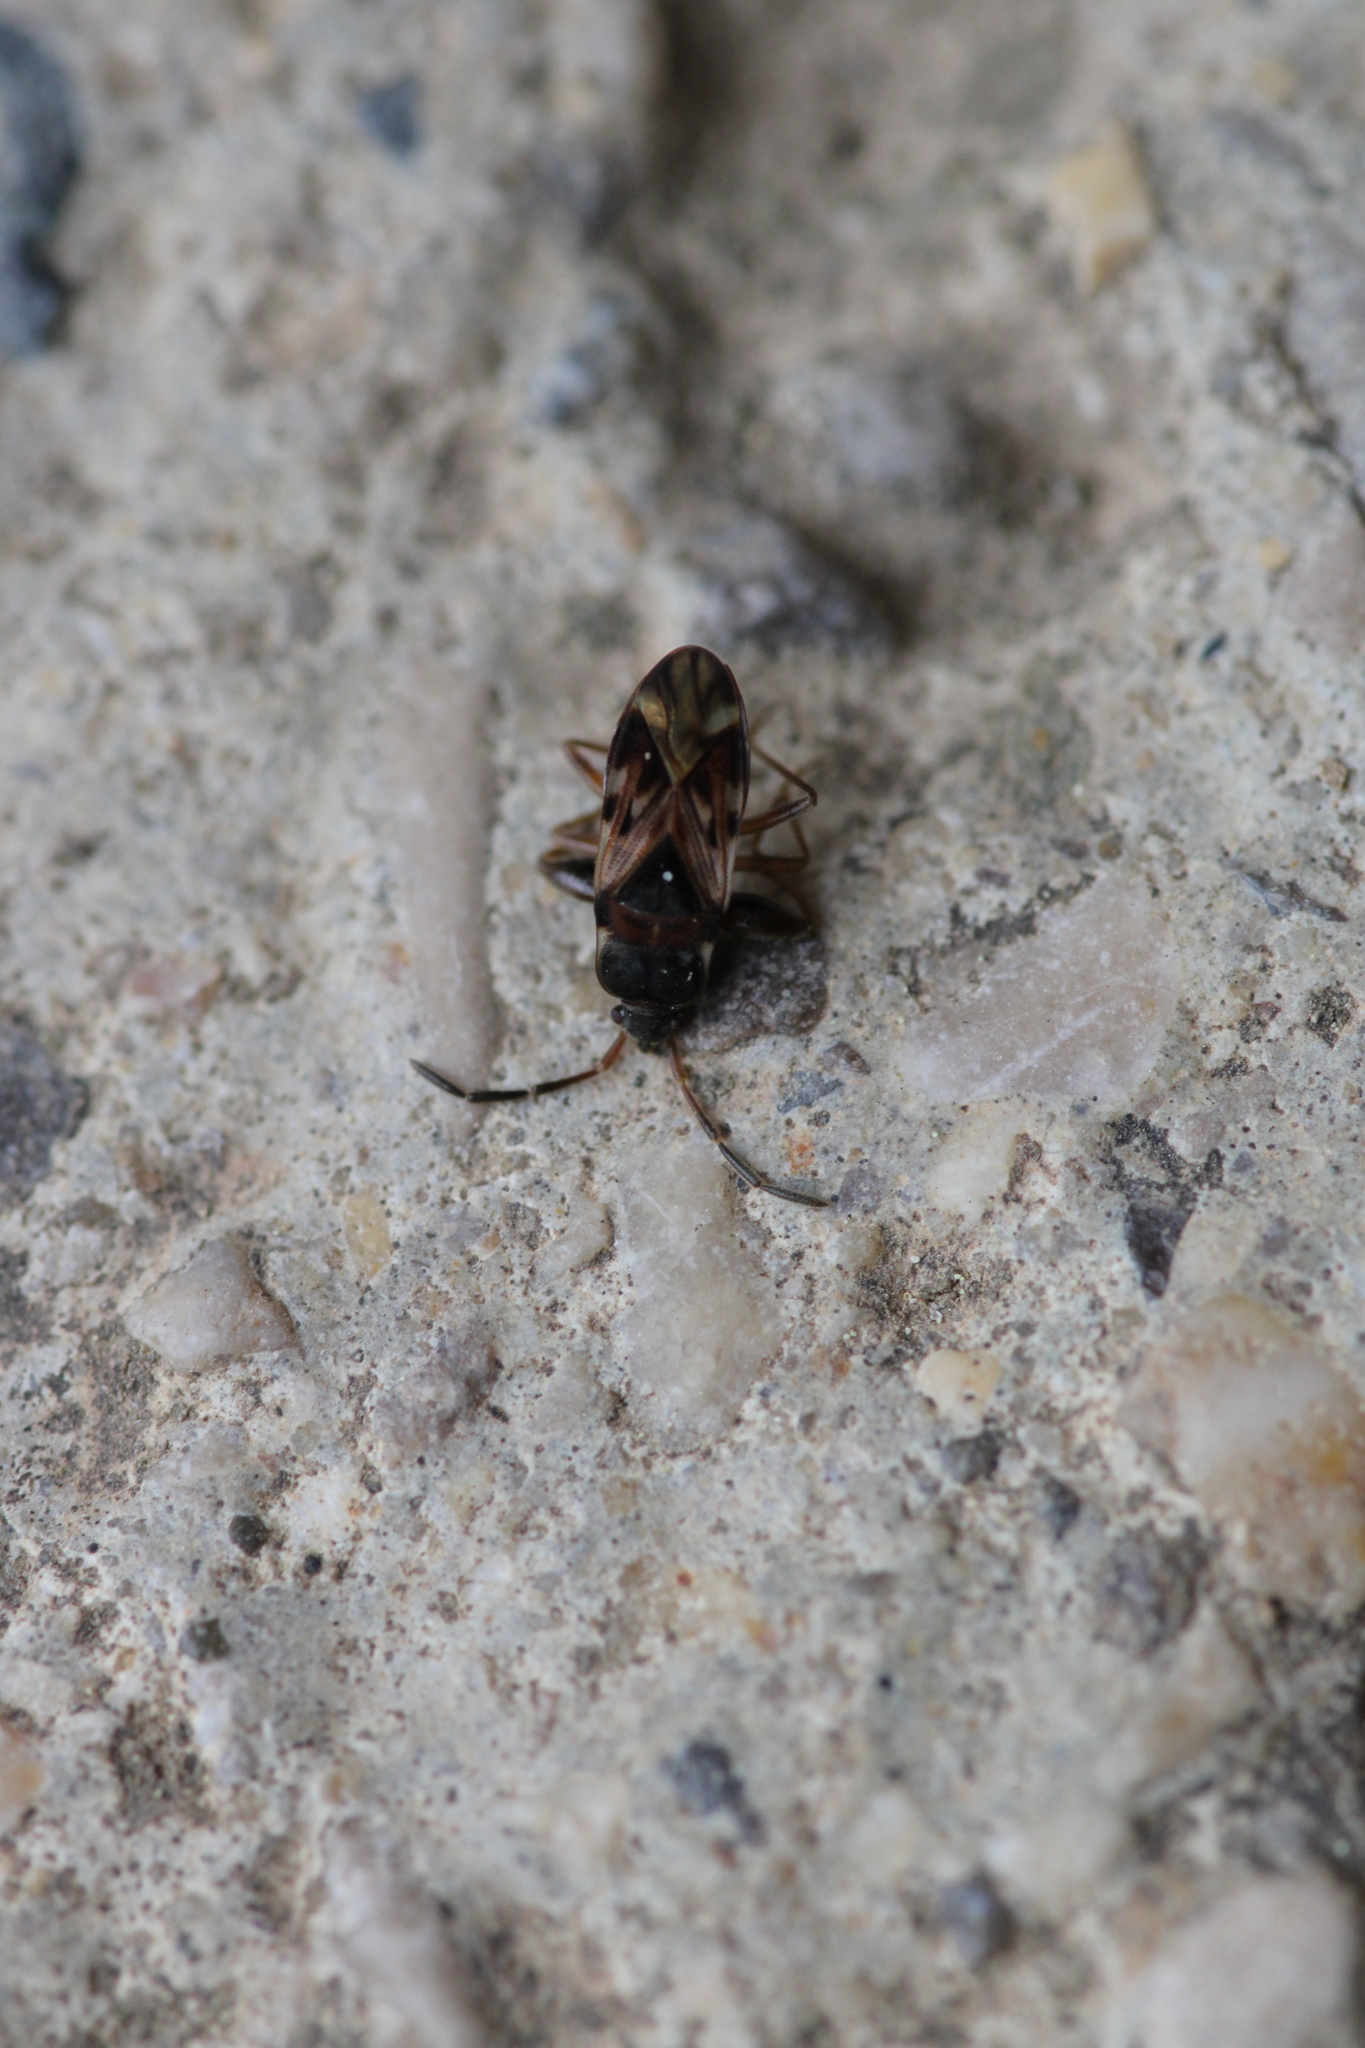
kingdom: Animalia
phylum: Arthropoda
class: Insecta
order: Hemiptera
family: Rhyparochromidae
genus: Scolopostethus
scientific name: Scolopostethus grandis
